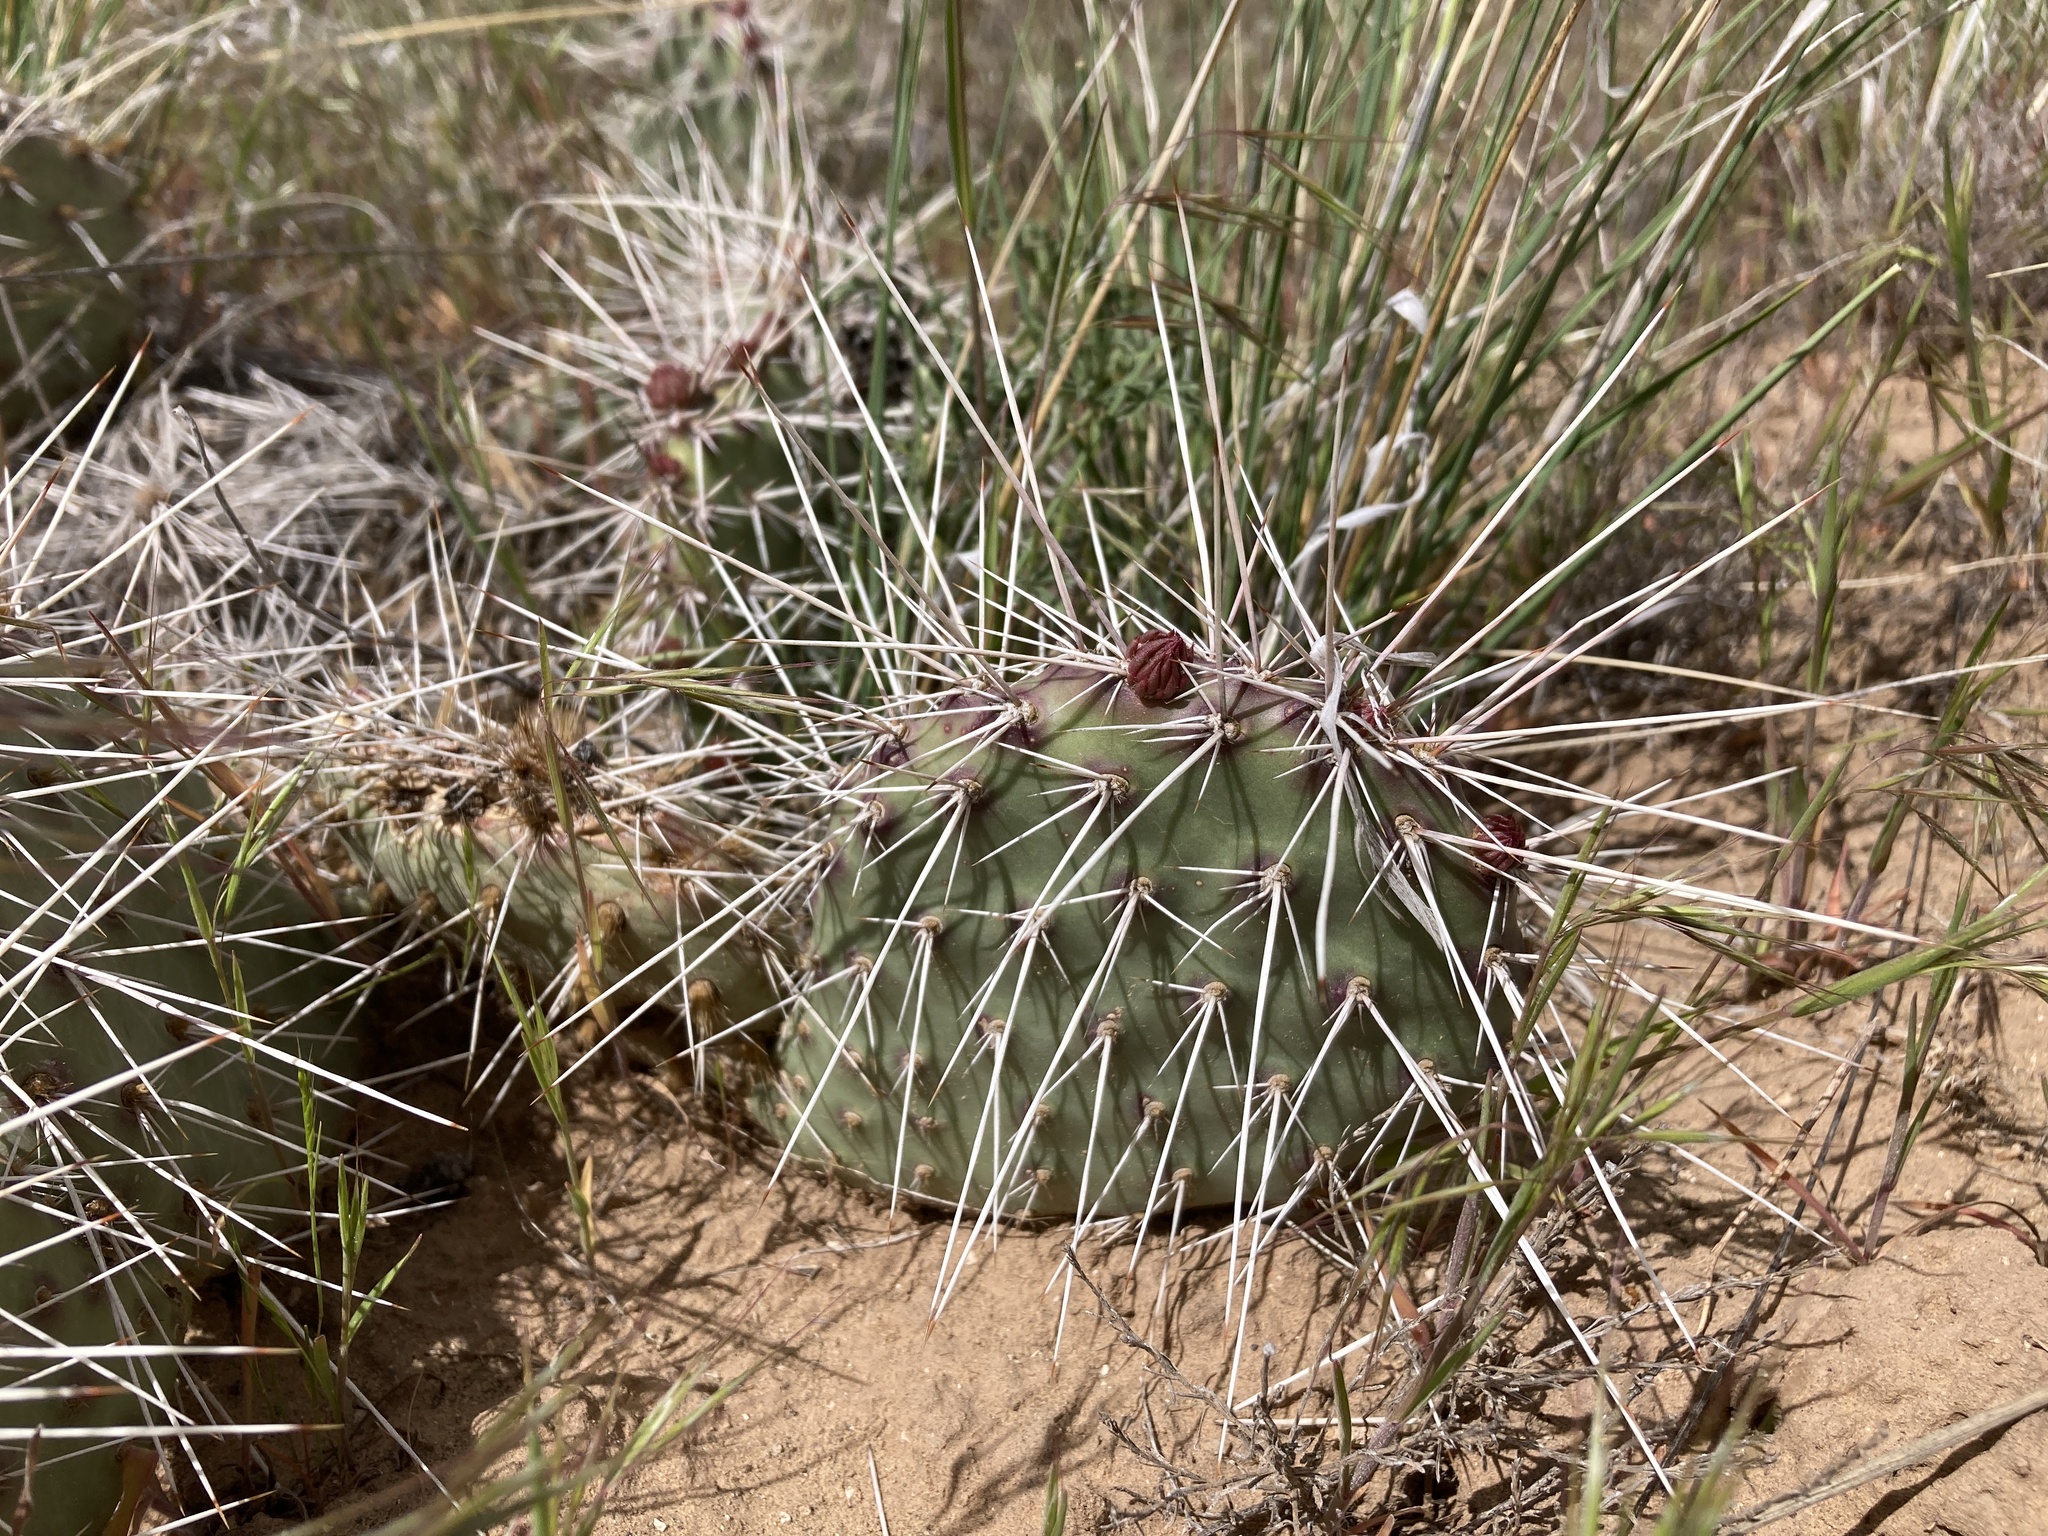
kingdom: Plantae
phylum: Tracheophyta
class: Magnoliopsida
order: Caryophyllales
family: Cactaceae
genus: Opuntia
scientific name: Opuntia polyacantha
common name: Plains prickly-pear
